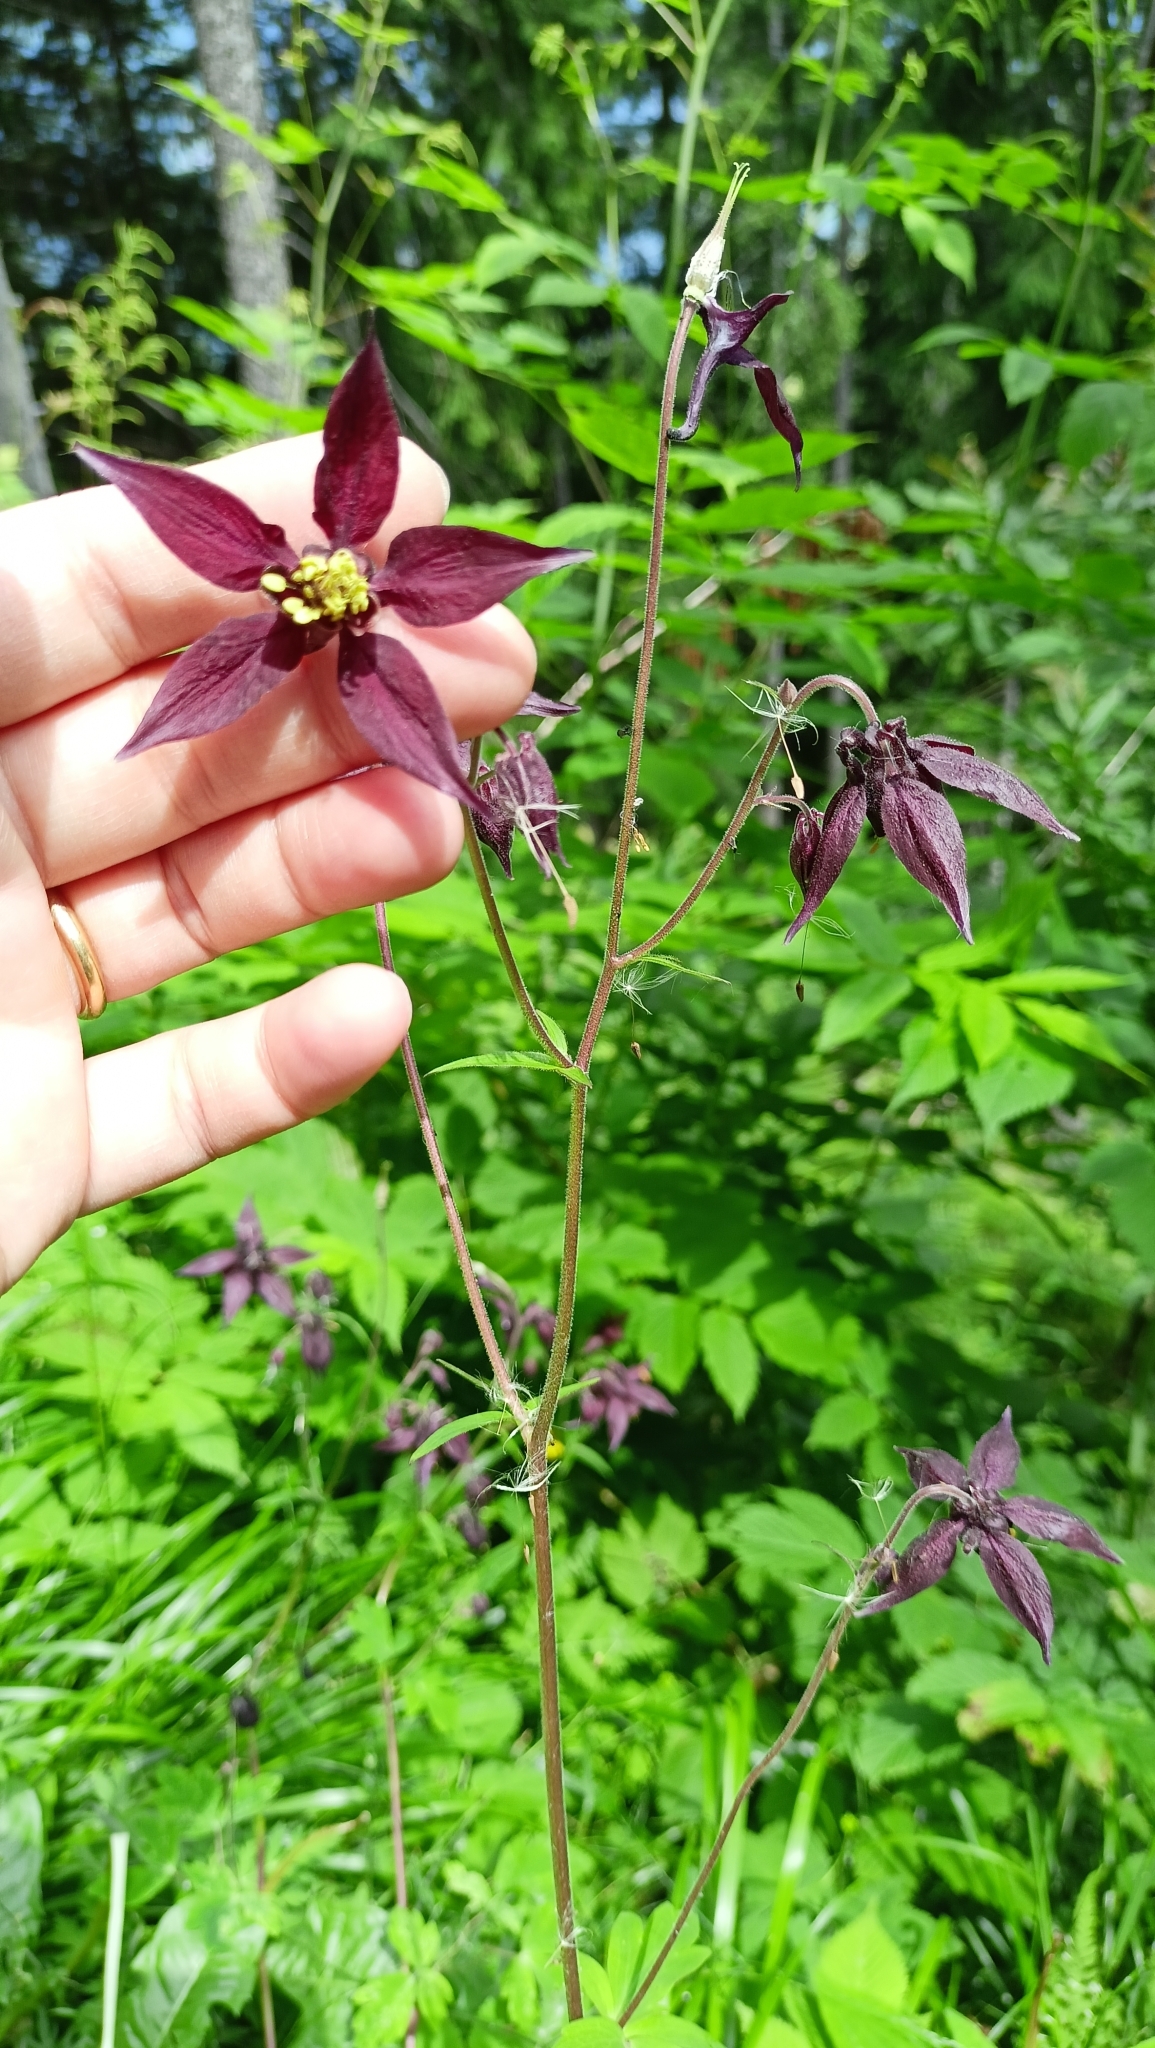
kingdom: Plantae
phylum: Tracheophyta
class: Magnoliopsida
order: Ranunculales
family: Ranunculaceae
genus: Aquilegia
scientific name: Aquilegia atrata
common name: Dark columbine
